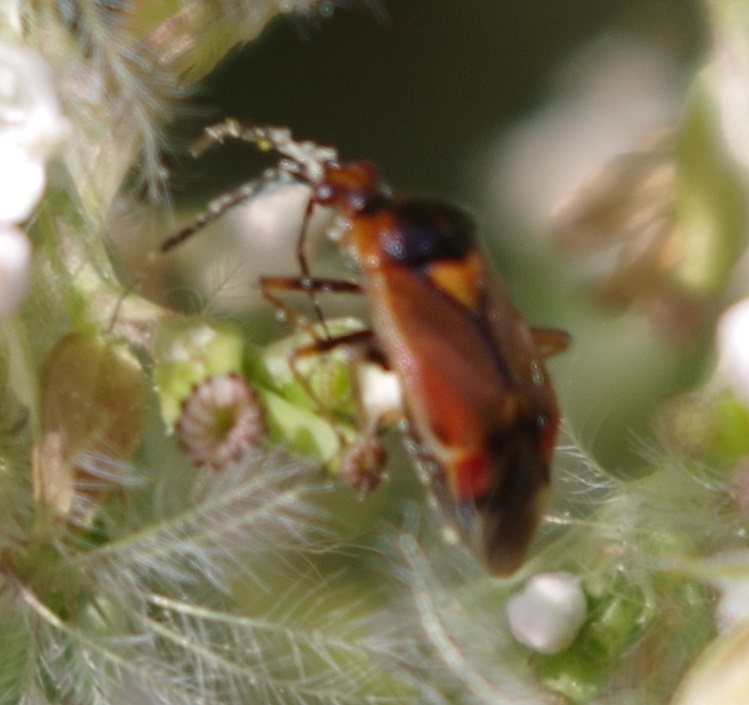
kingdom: Animalia
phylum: Arthropoda
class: Insecta
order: Hemiptera
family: Miridae
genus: Deraeocoris
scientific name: Deraeocoris ruber
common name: Plant bug
